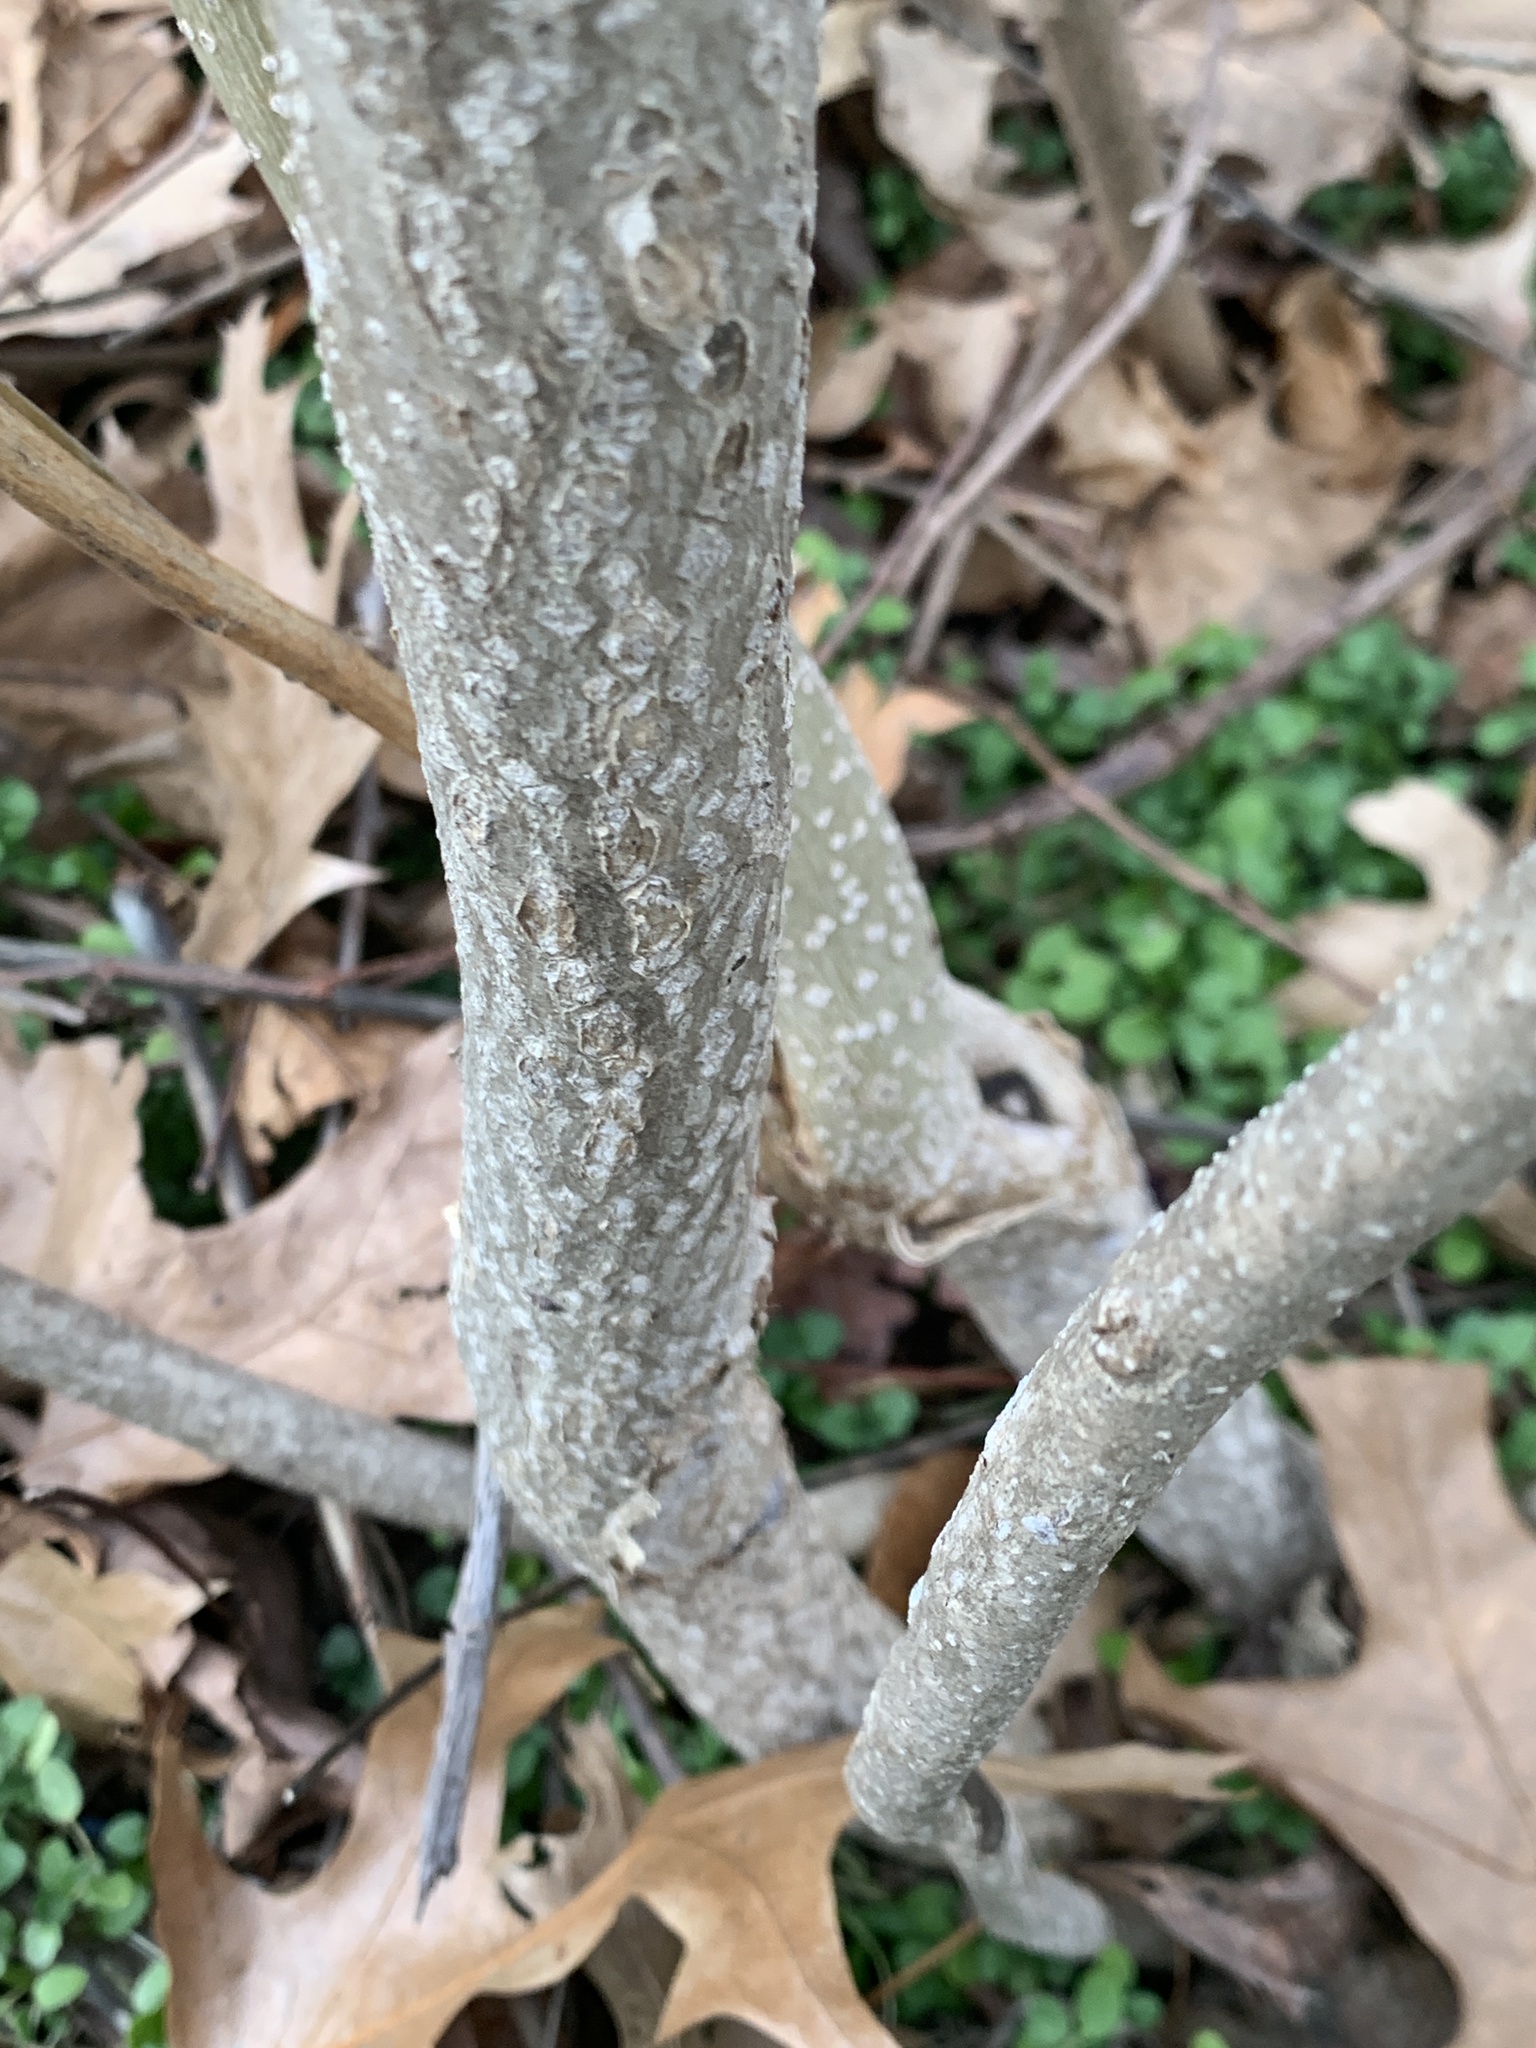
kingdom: Plantae
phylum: Tracheophyta
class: Magnoliopsida
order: Sapindales
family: Simaroubaceae
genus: Ailanthus
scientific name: Ailanthus altissima
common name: Tree-of-heaven
